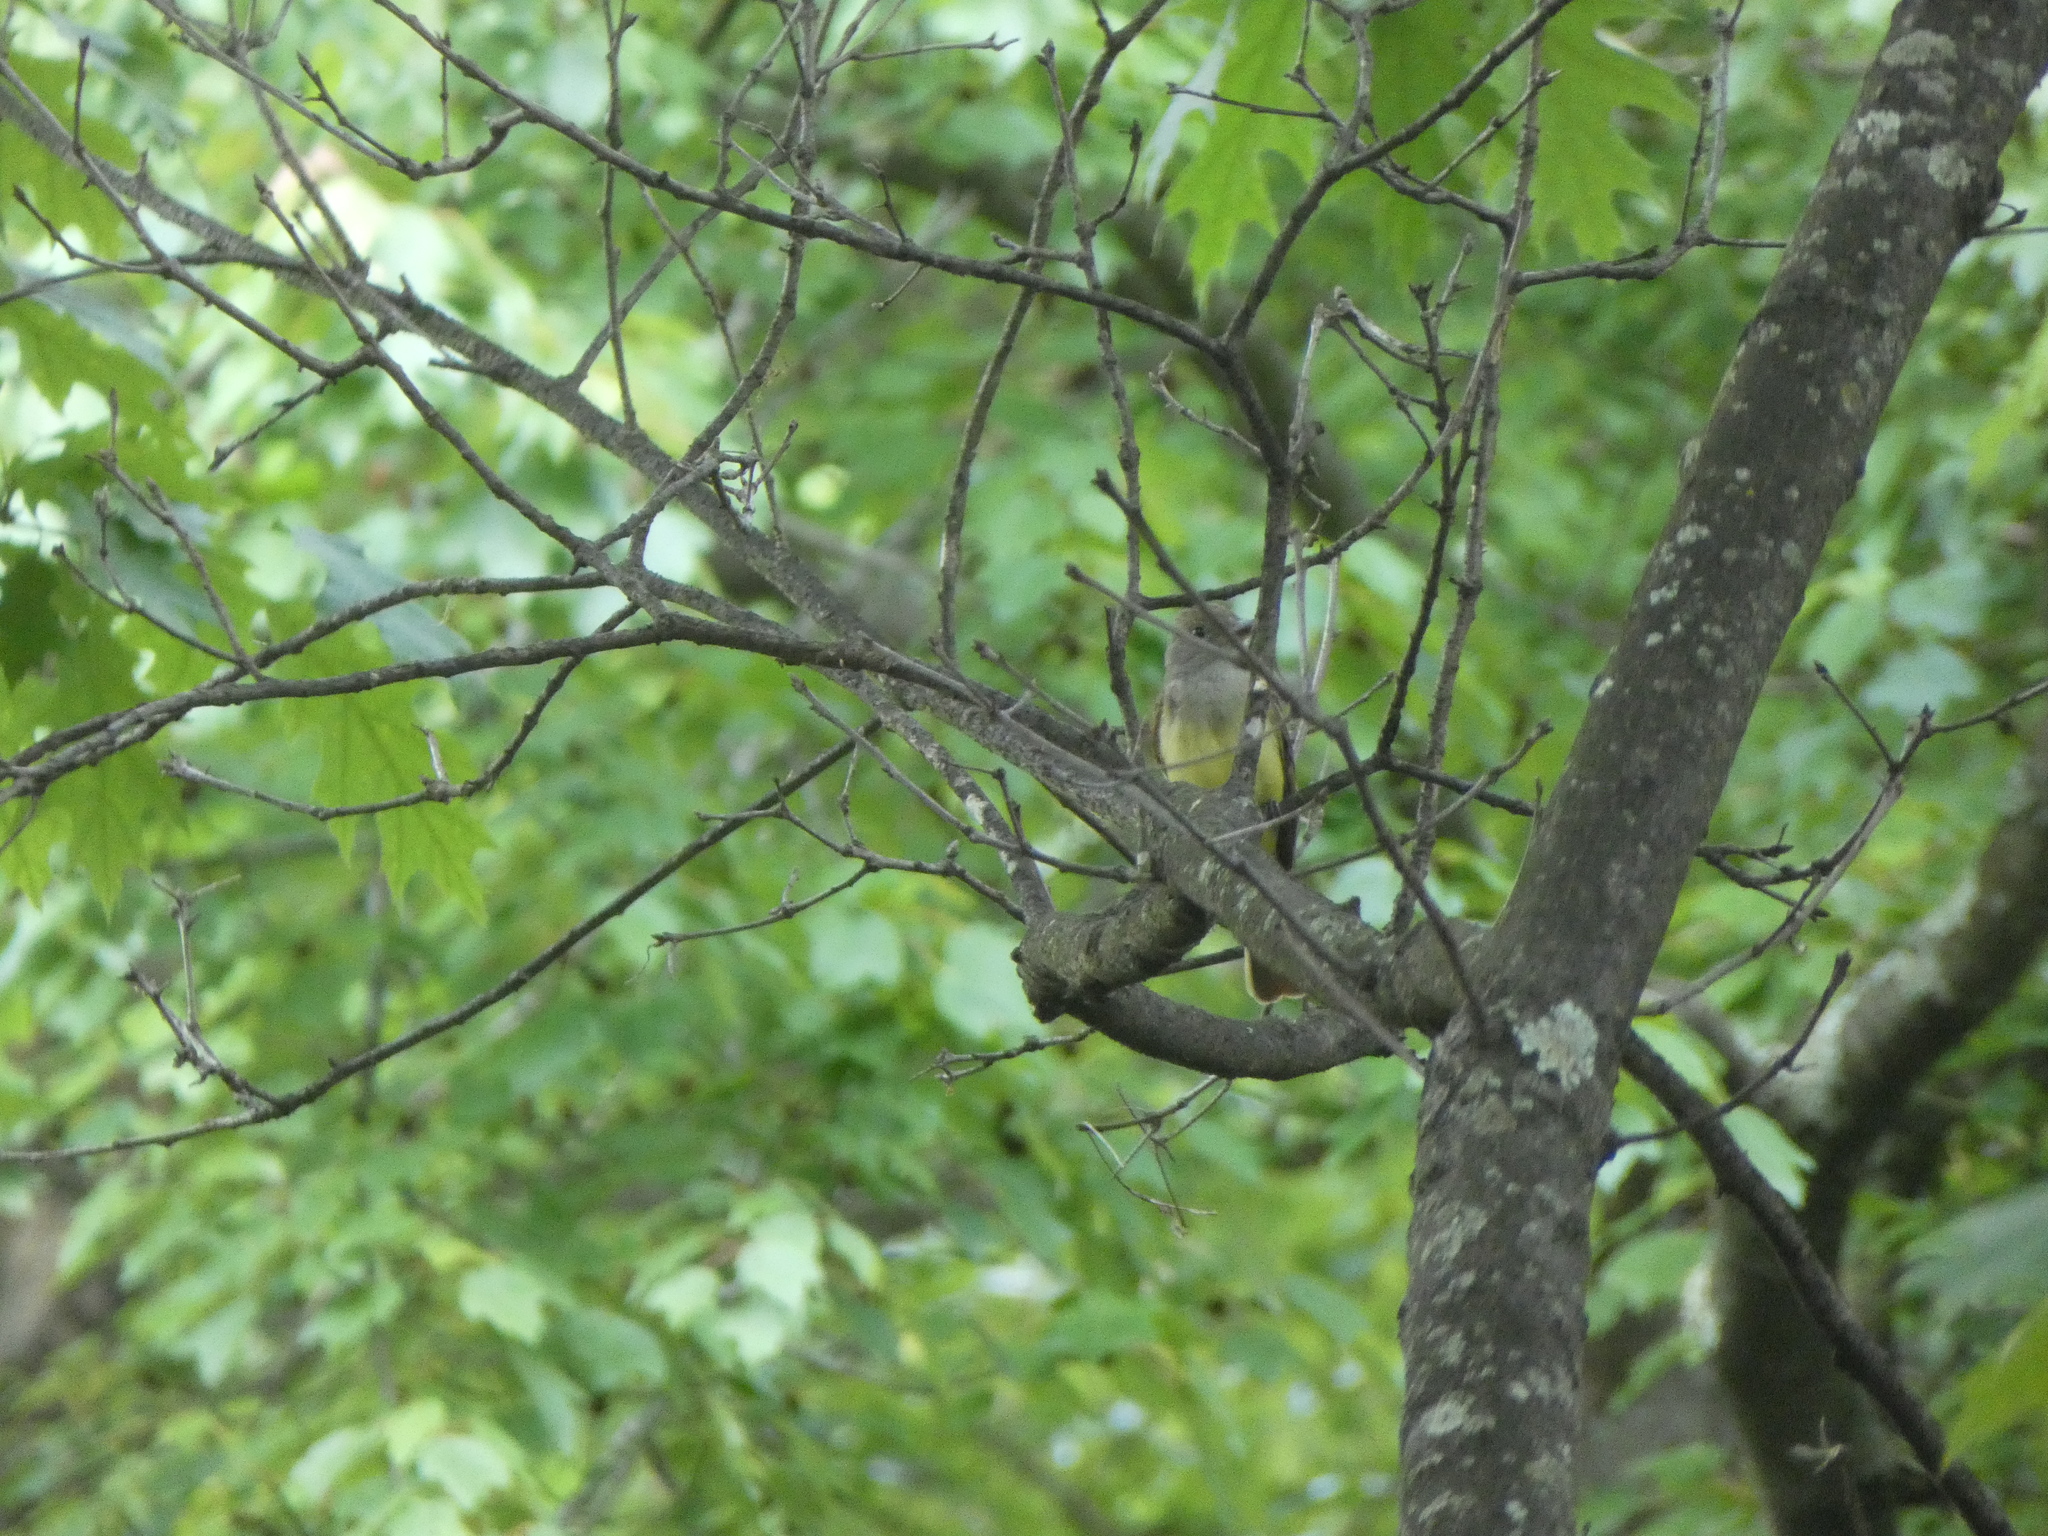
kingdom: Animalia
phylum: Chordata
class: Aves
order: Passeriformes
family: Tyrannidae
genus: Myiarchus
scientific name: Myiarchus crinitus
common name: Great crested flycatcher
